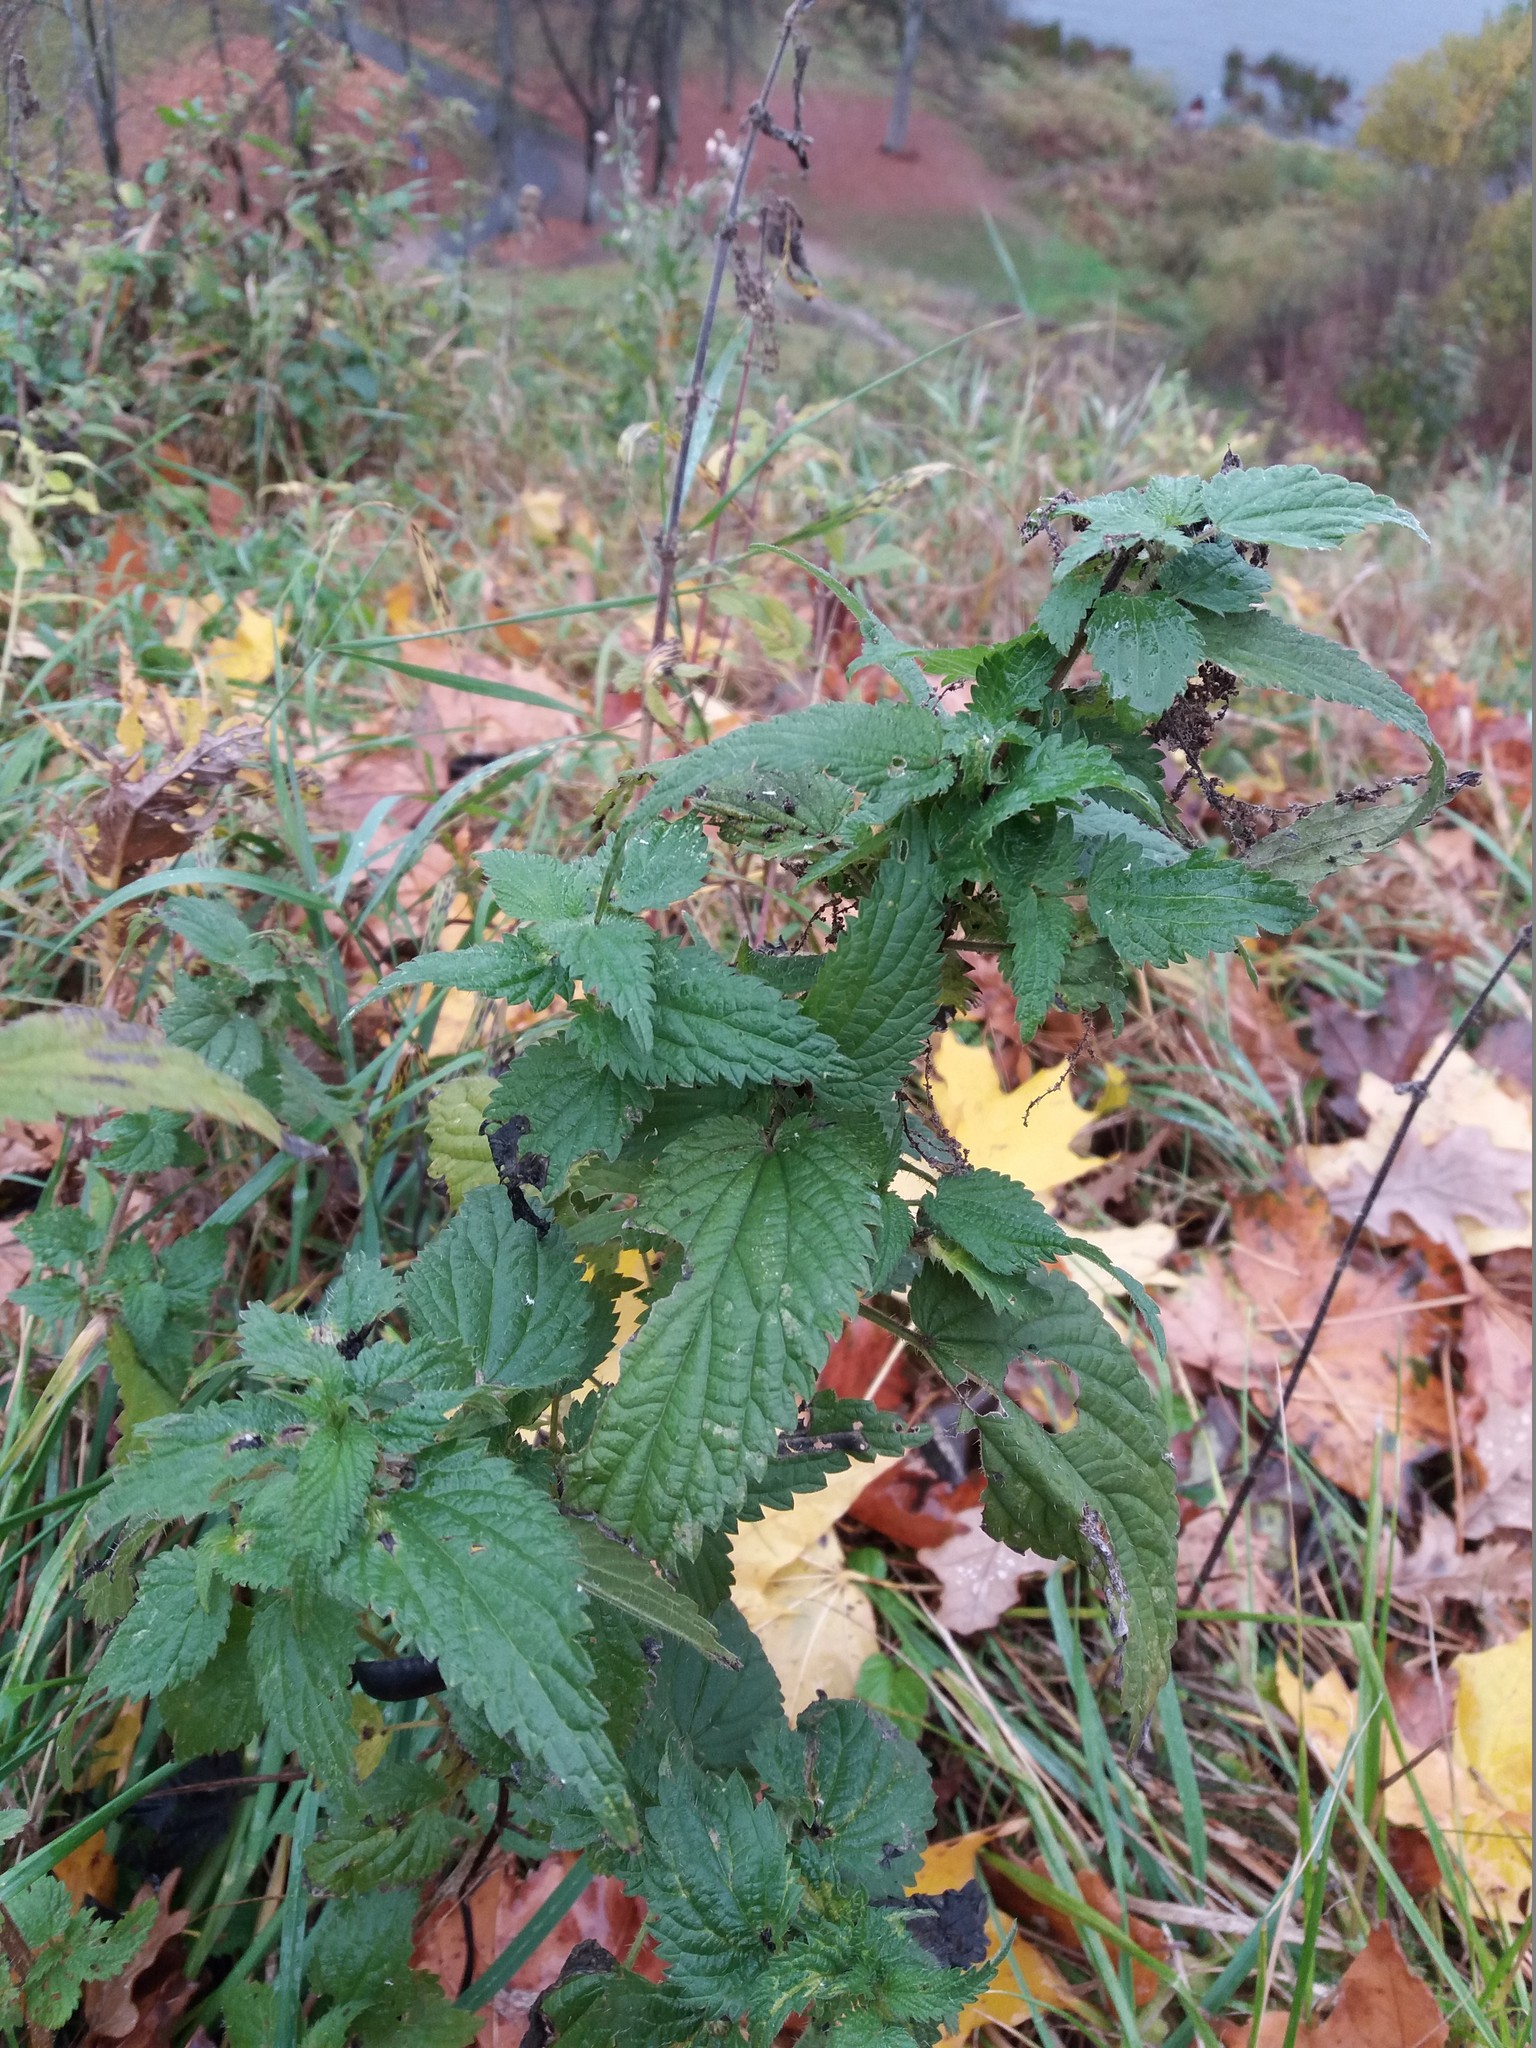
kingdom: Plantae
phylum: Tracheophyta
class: Magnoliopsida
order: Rosales
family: Urticaceae
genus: Urtica
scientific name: Urtica dioica
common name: Common nettle
